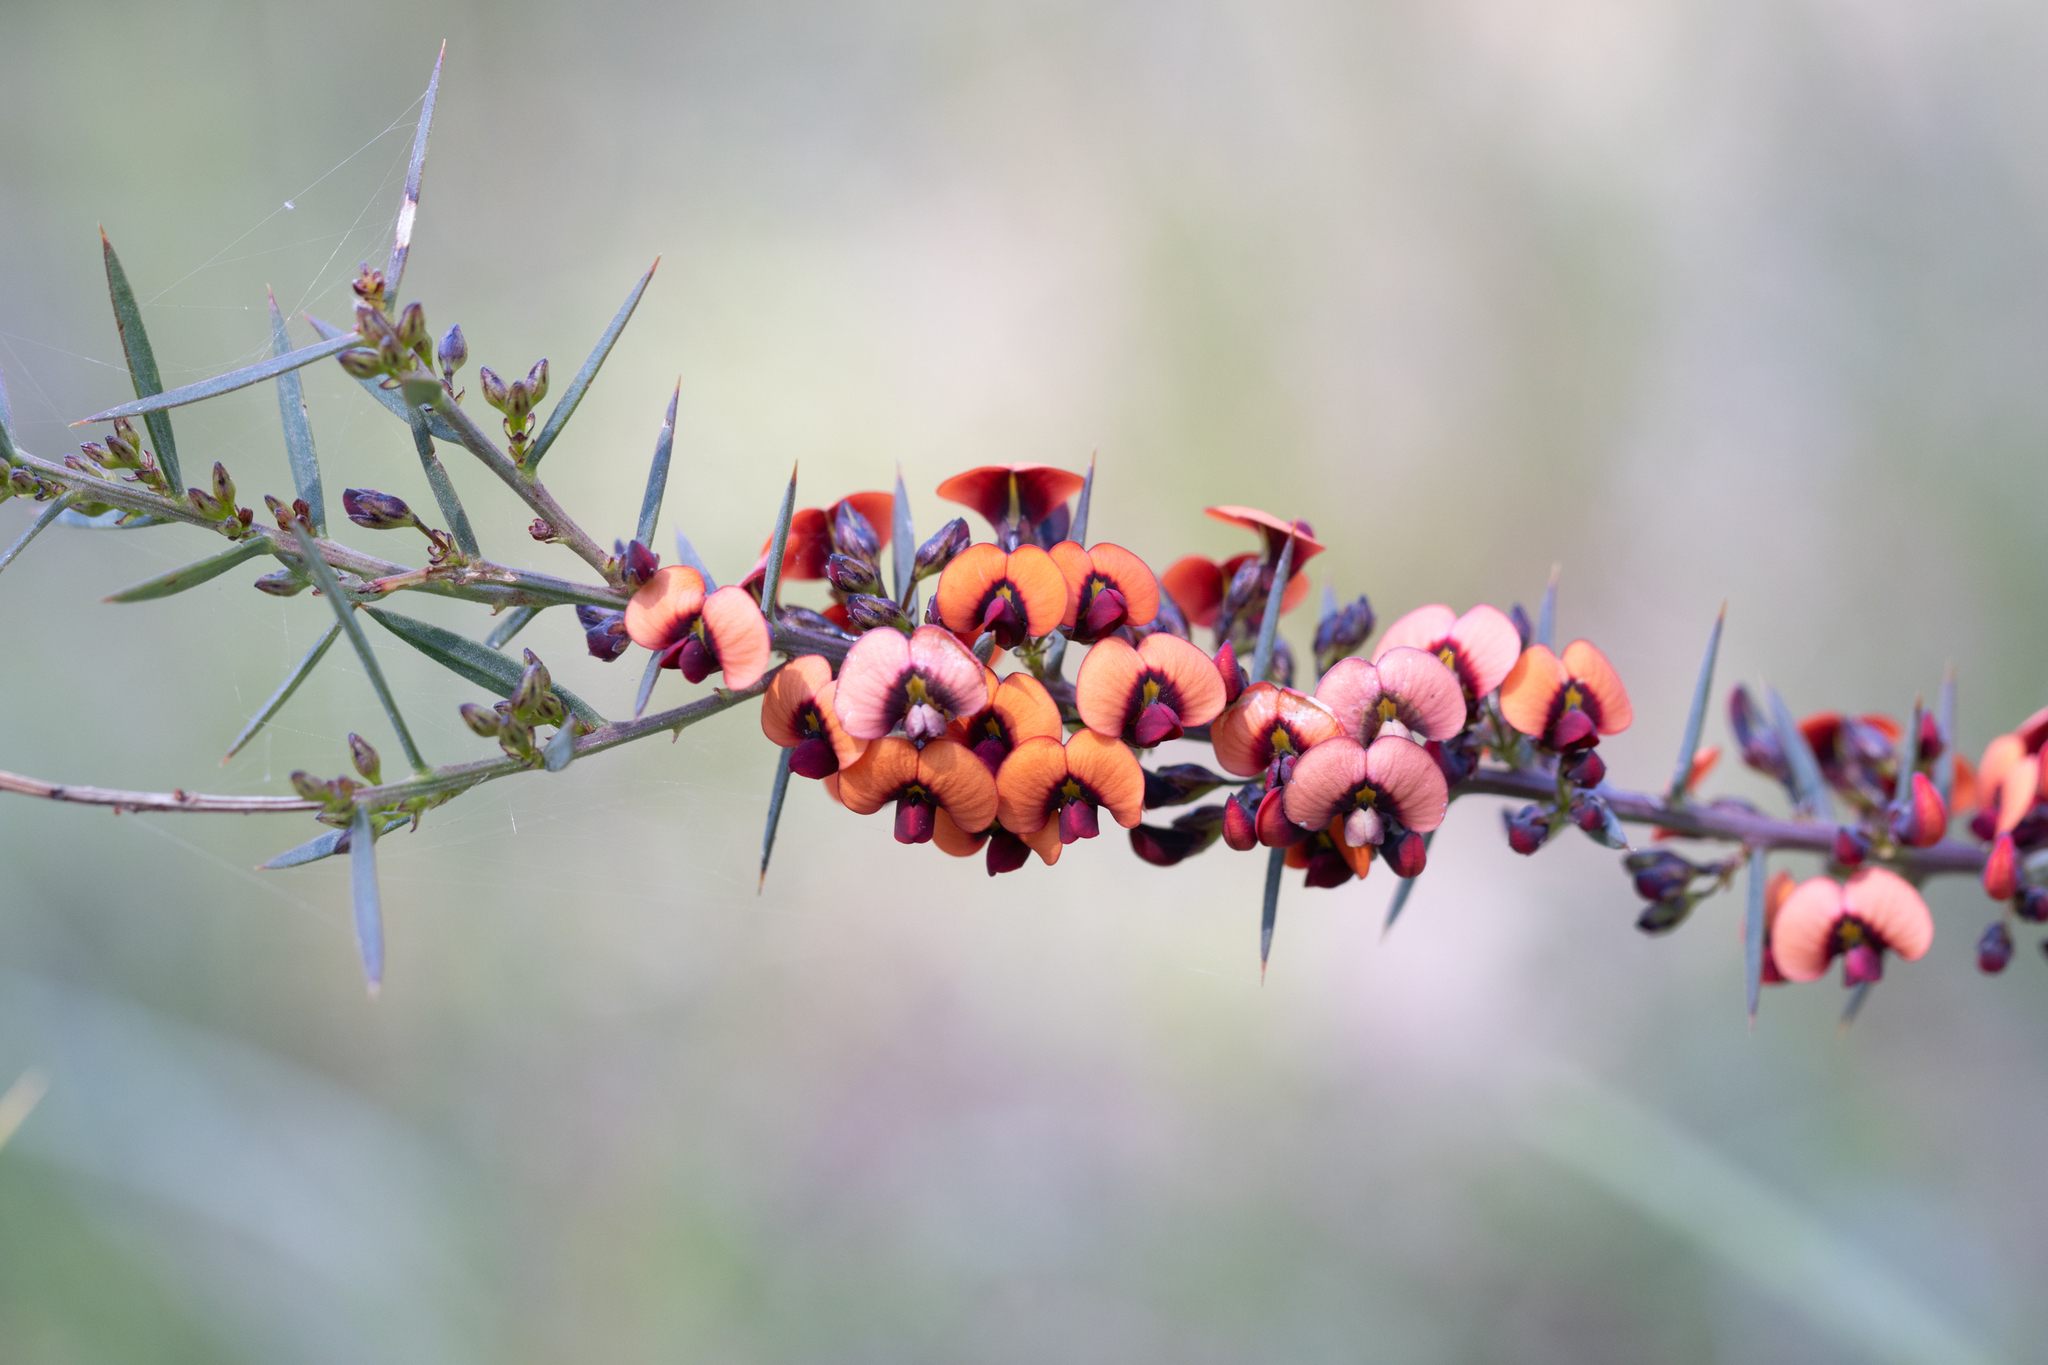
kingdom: Plantae
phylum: Tracheophyta
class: Magnoliopsida
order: Fabales
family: Fabaceae
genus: Daviesia
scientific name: Daviesia ulicifolia
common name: Gorse bitter-pea
